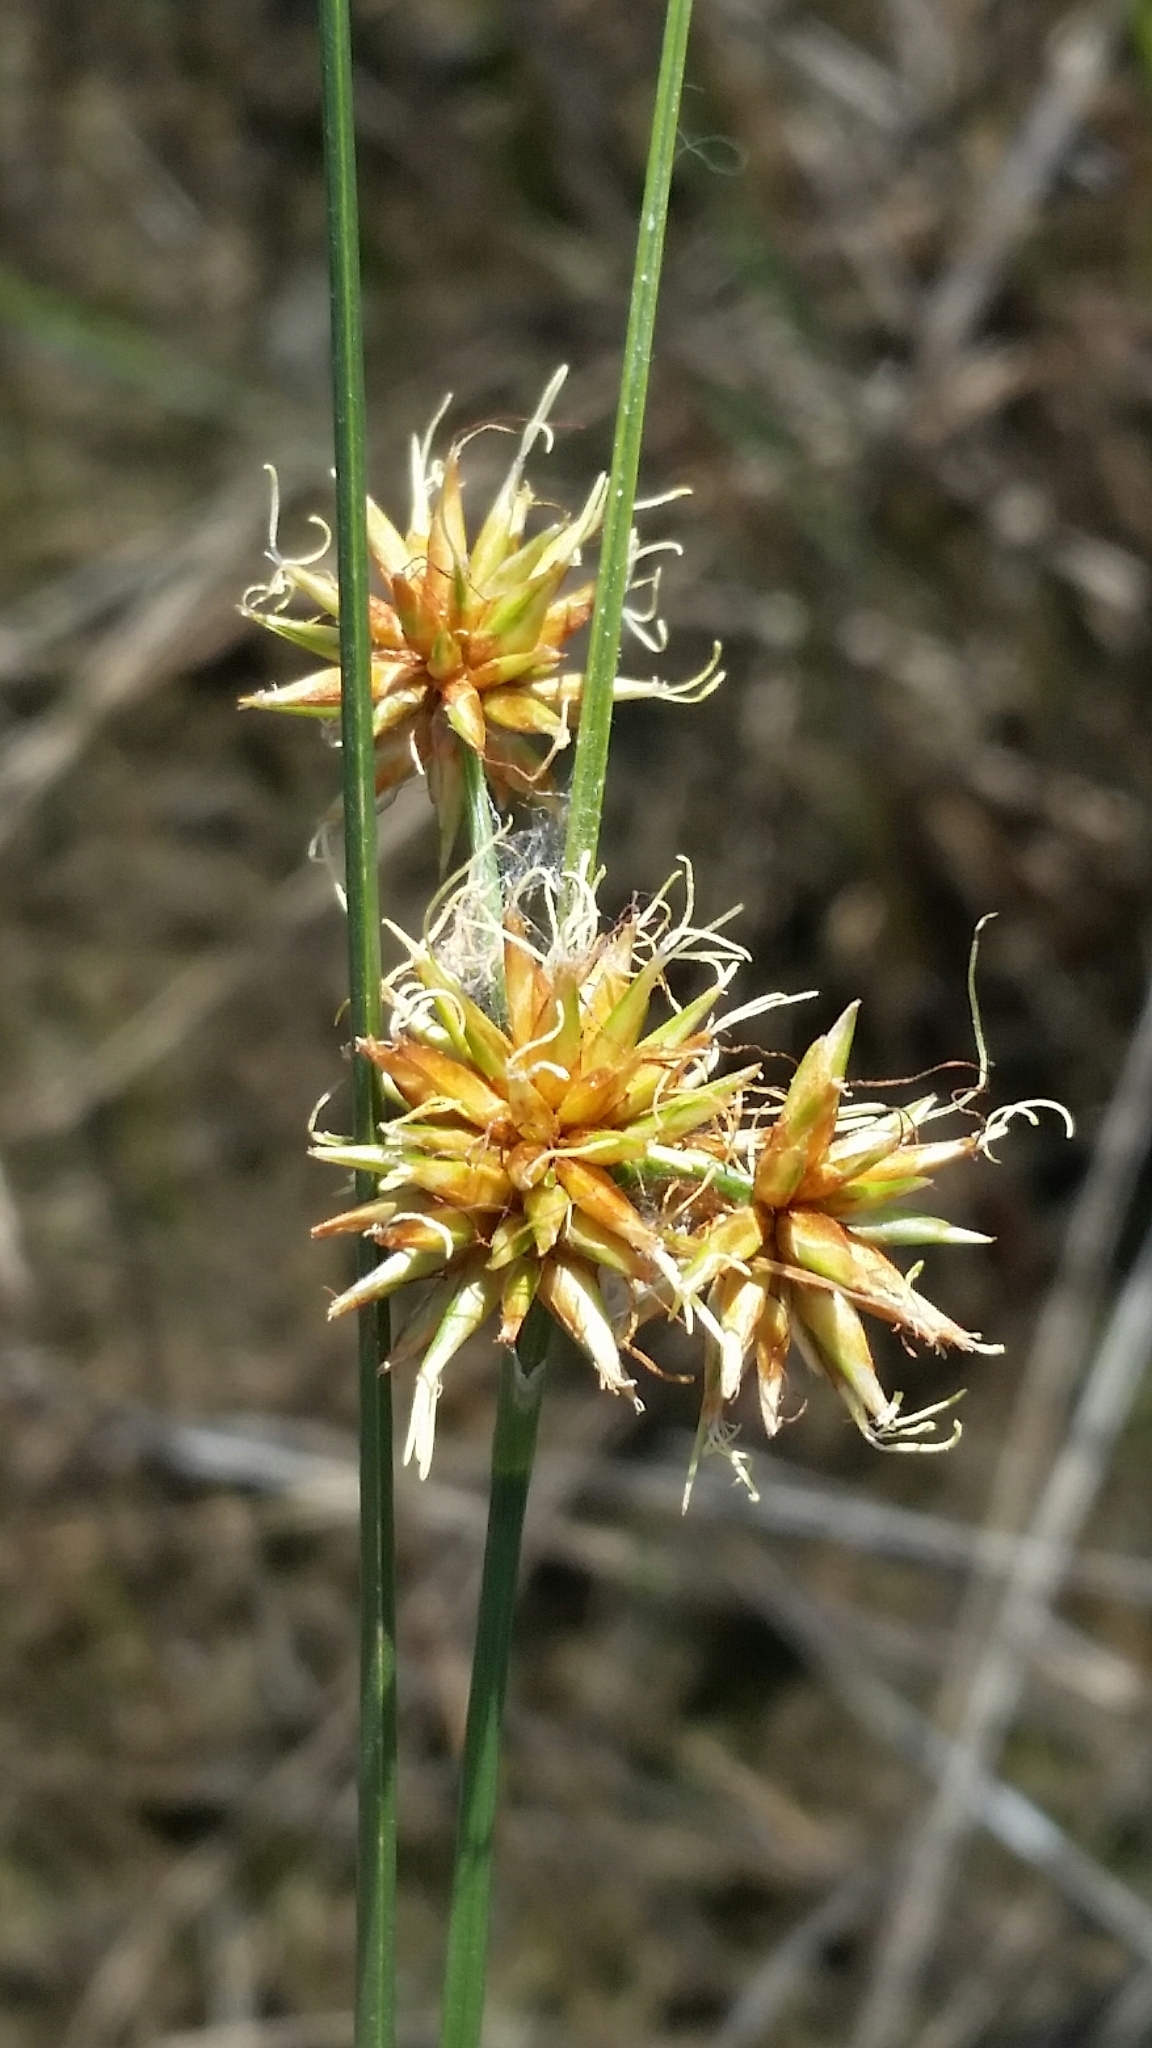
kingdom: Plantae
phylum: Tracheophyta
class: Liliopsida
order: Poales
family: Cyperaceae
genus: Rhynchospora
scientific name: Rhynchospora tracyi
